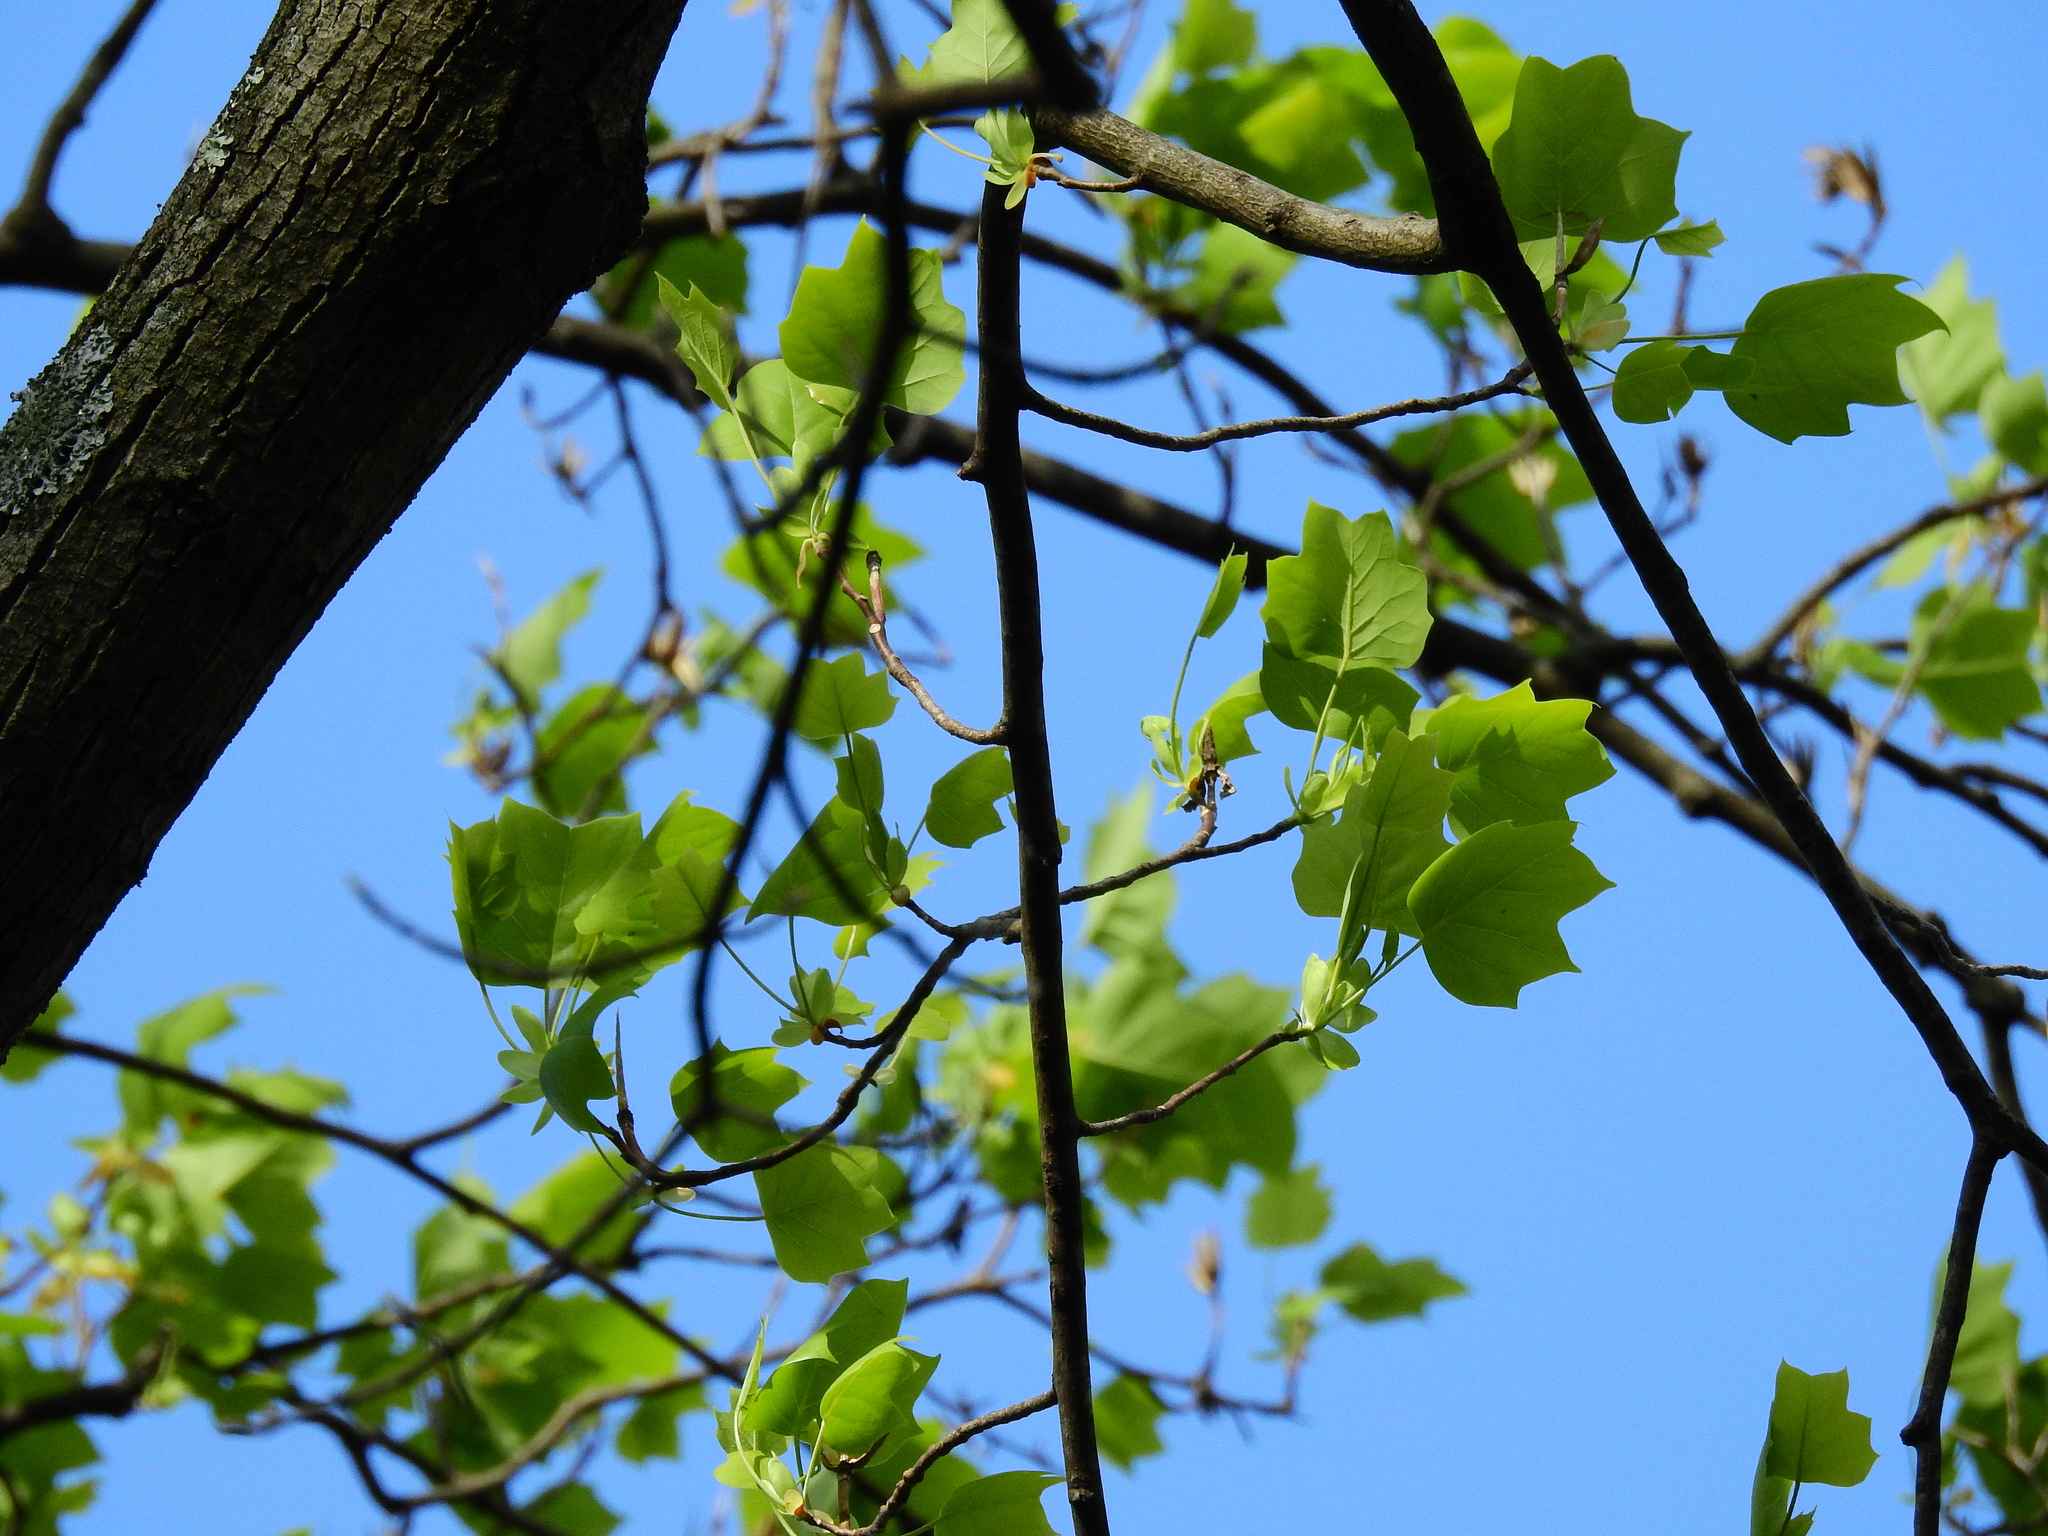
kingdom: Plantae
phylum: Tracheophyta
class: Magnoliopsida
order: Magnoliales
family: Magnoliaceae
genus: Liriodendron
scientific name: Liriodendron tulipifera
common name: Tulip tree
